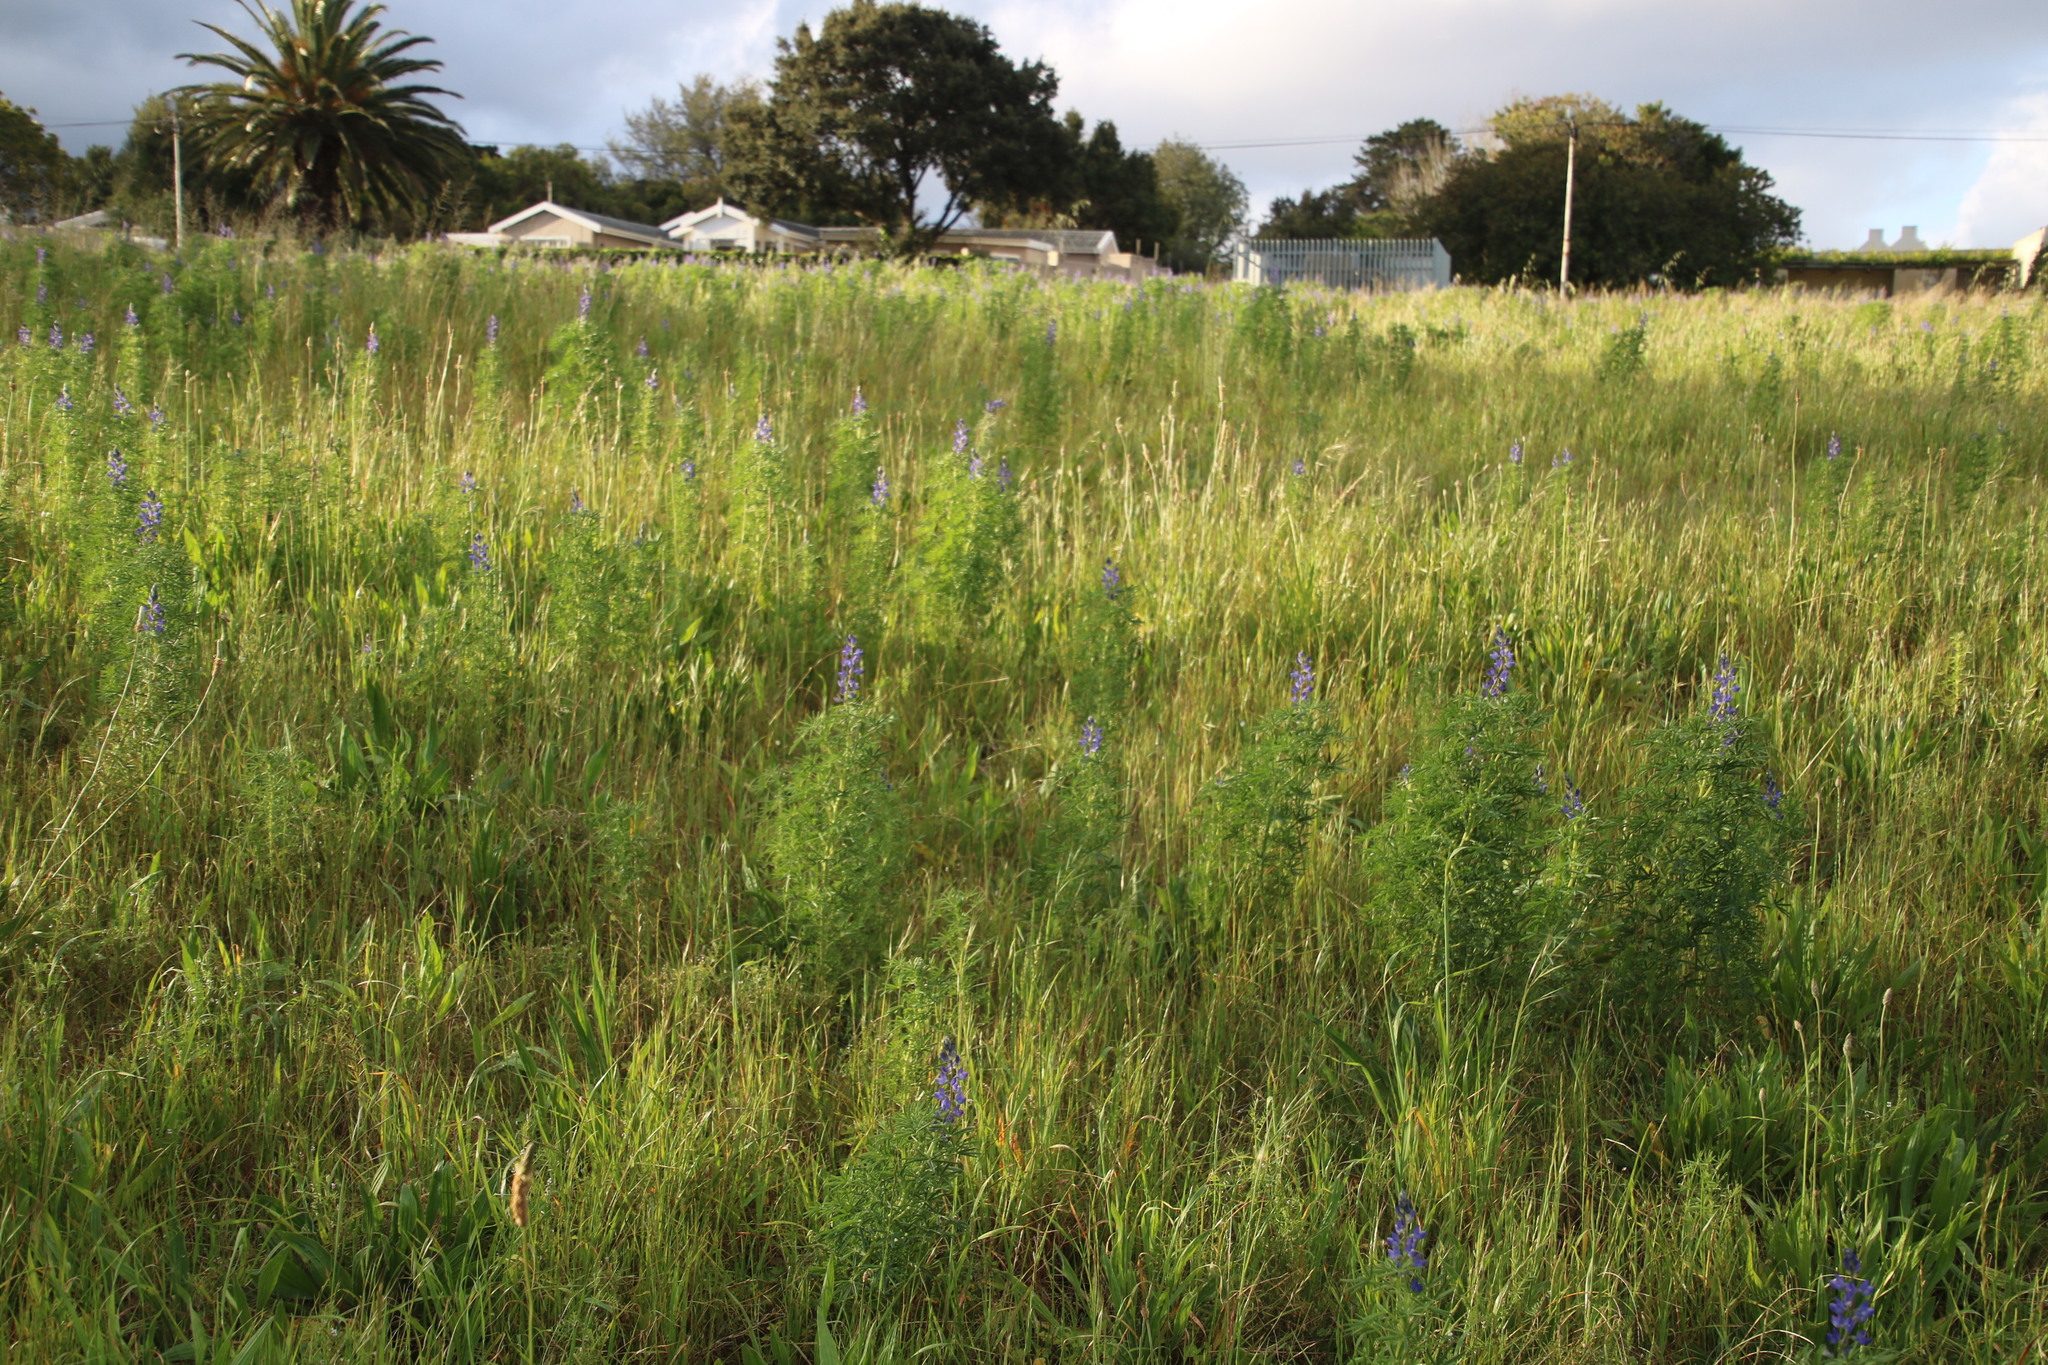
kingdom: Plantae
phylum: Tracheophyta
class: Magnoliopsida
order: Fabales
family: Fabaceae
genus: Lupinus
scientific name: Lupinus angustifolius
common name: Narrow-leaved lupin
